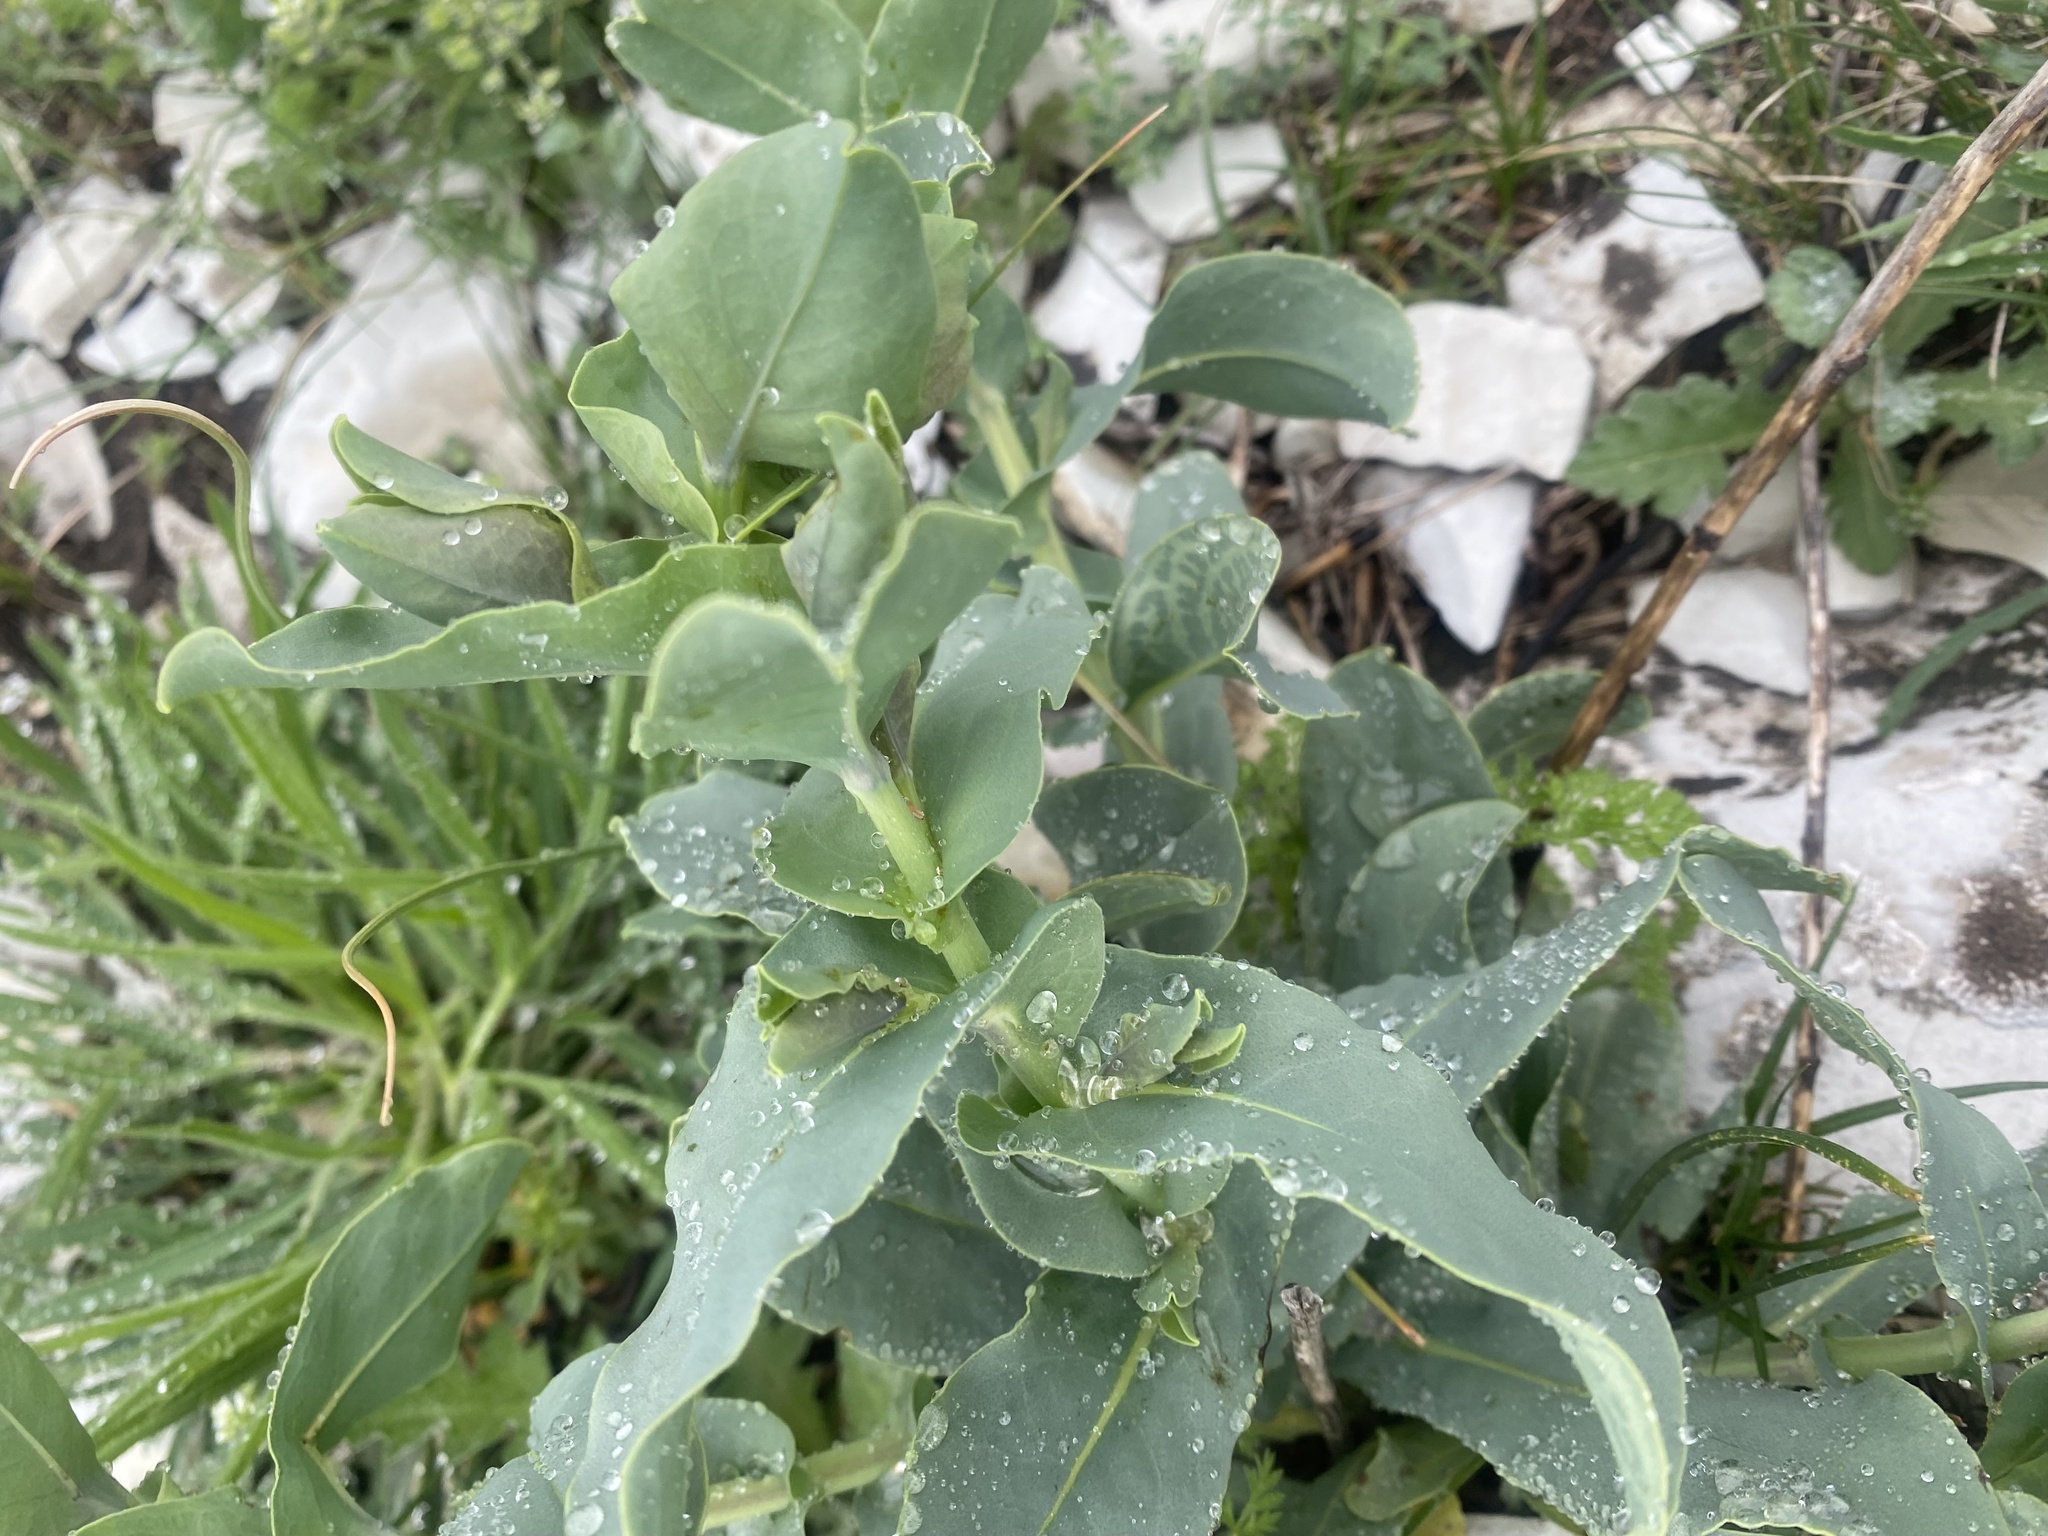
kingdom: Plantae
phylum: Tracheophyta
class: Magnoliopsida
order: Boraginales
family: Boraginaceae
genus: Cerinthe
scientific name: Cerinthe minor
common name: Lesser honeywort
